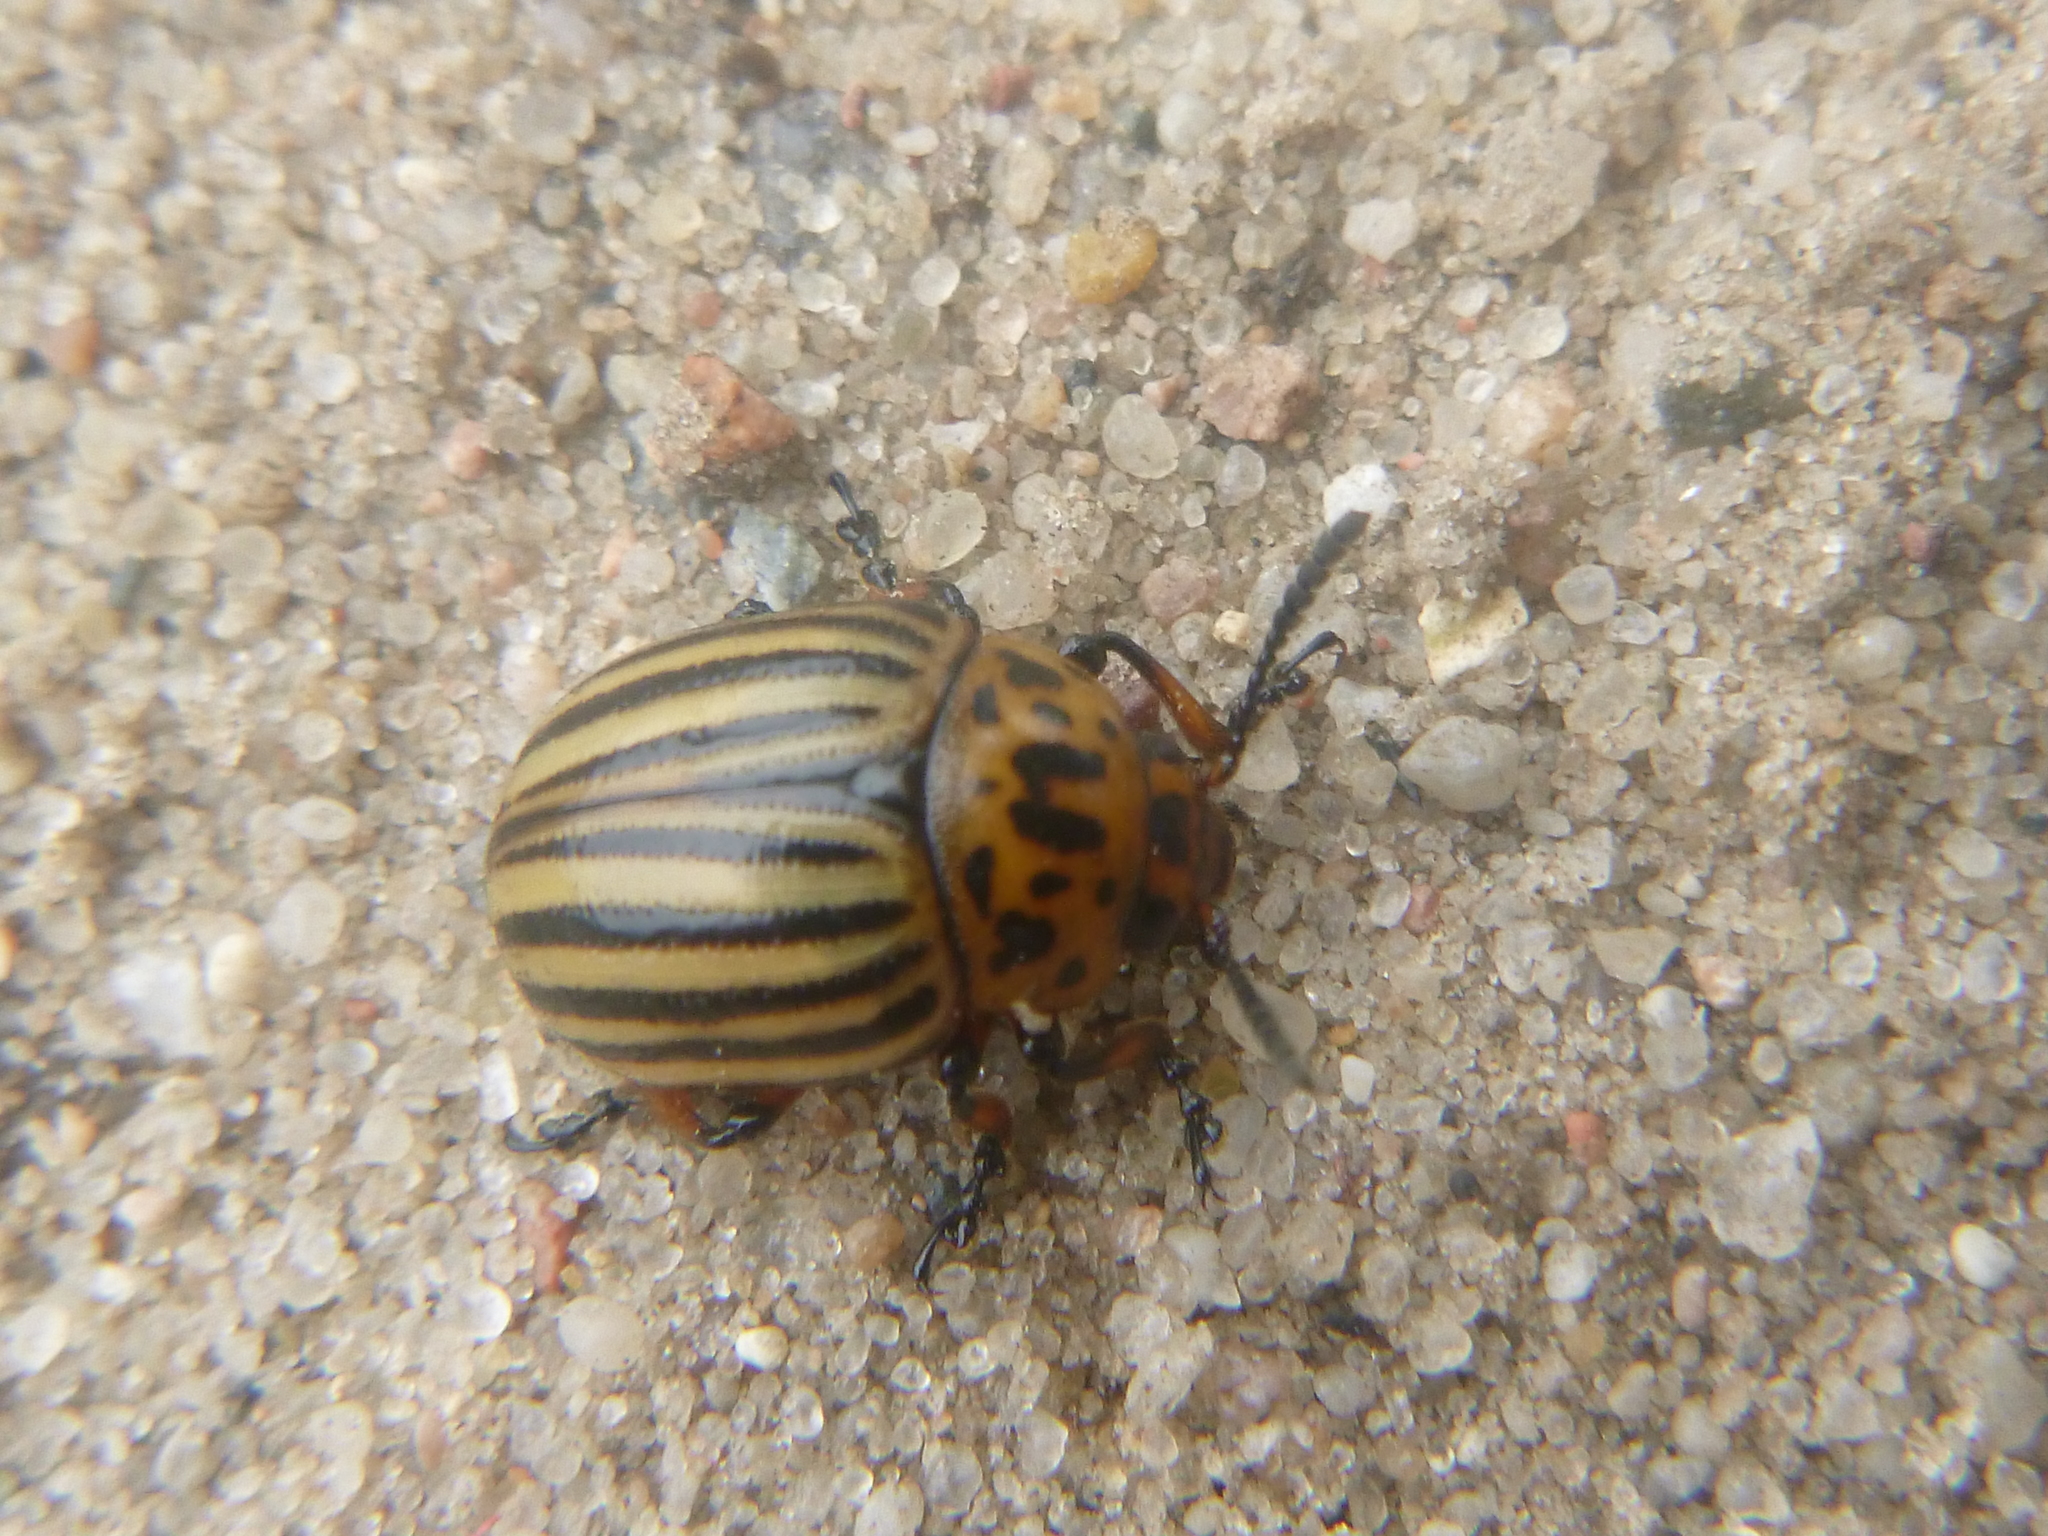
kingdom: Animalia
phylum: Arthropoda
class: Insecta
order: Coleoptera
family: Chrysomelidae
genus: Leptinotarsa
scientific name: Leptinotarsa decemlineata
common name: Colorado potato beetle
